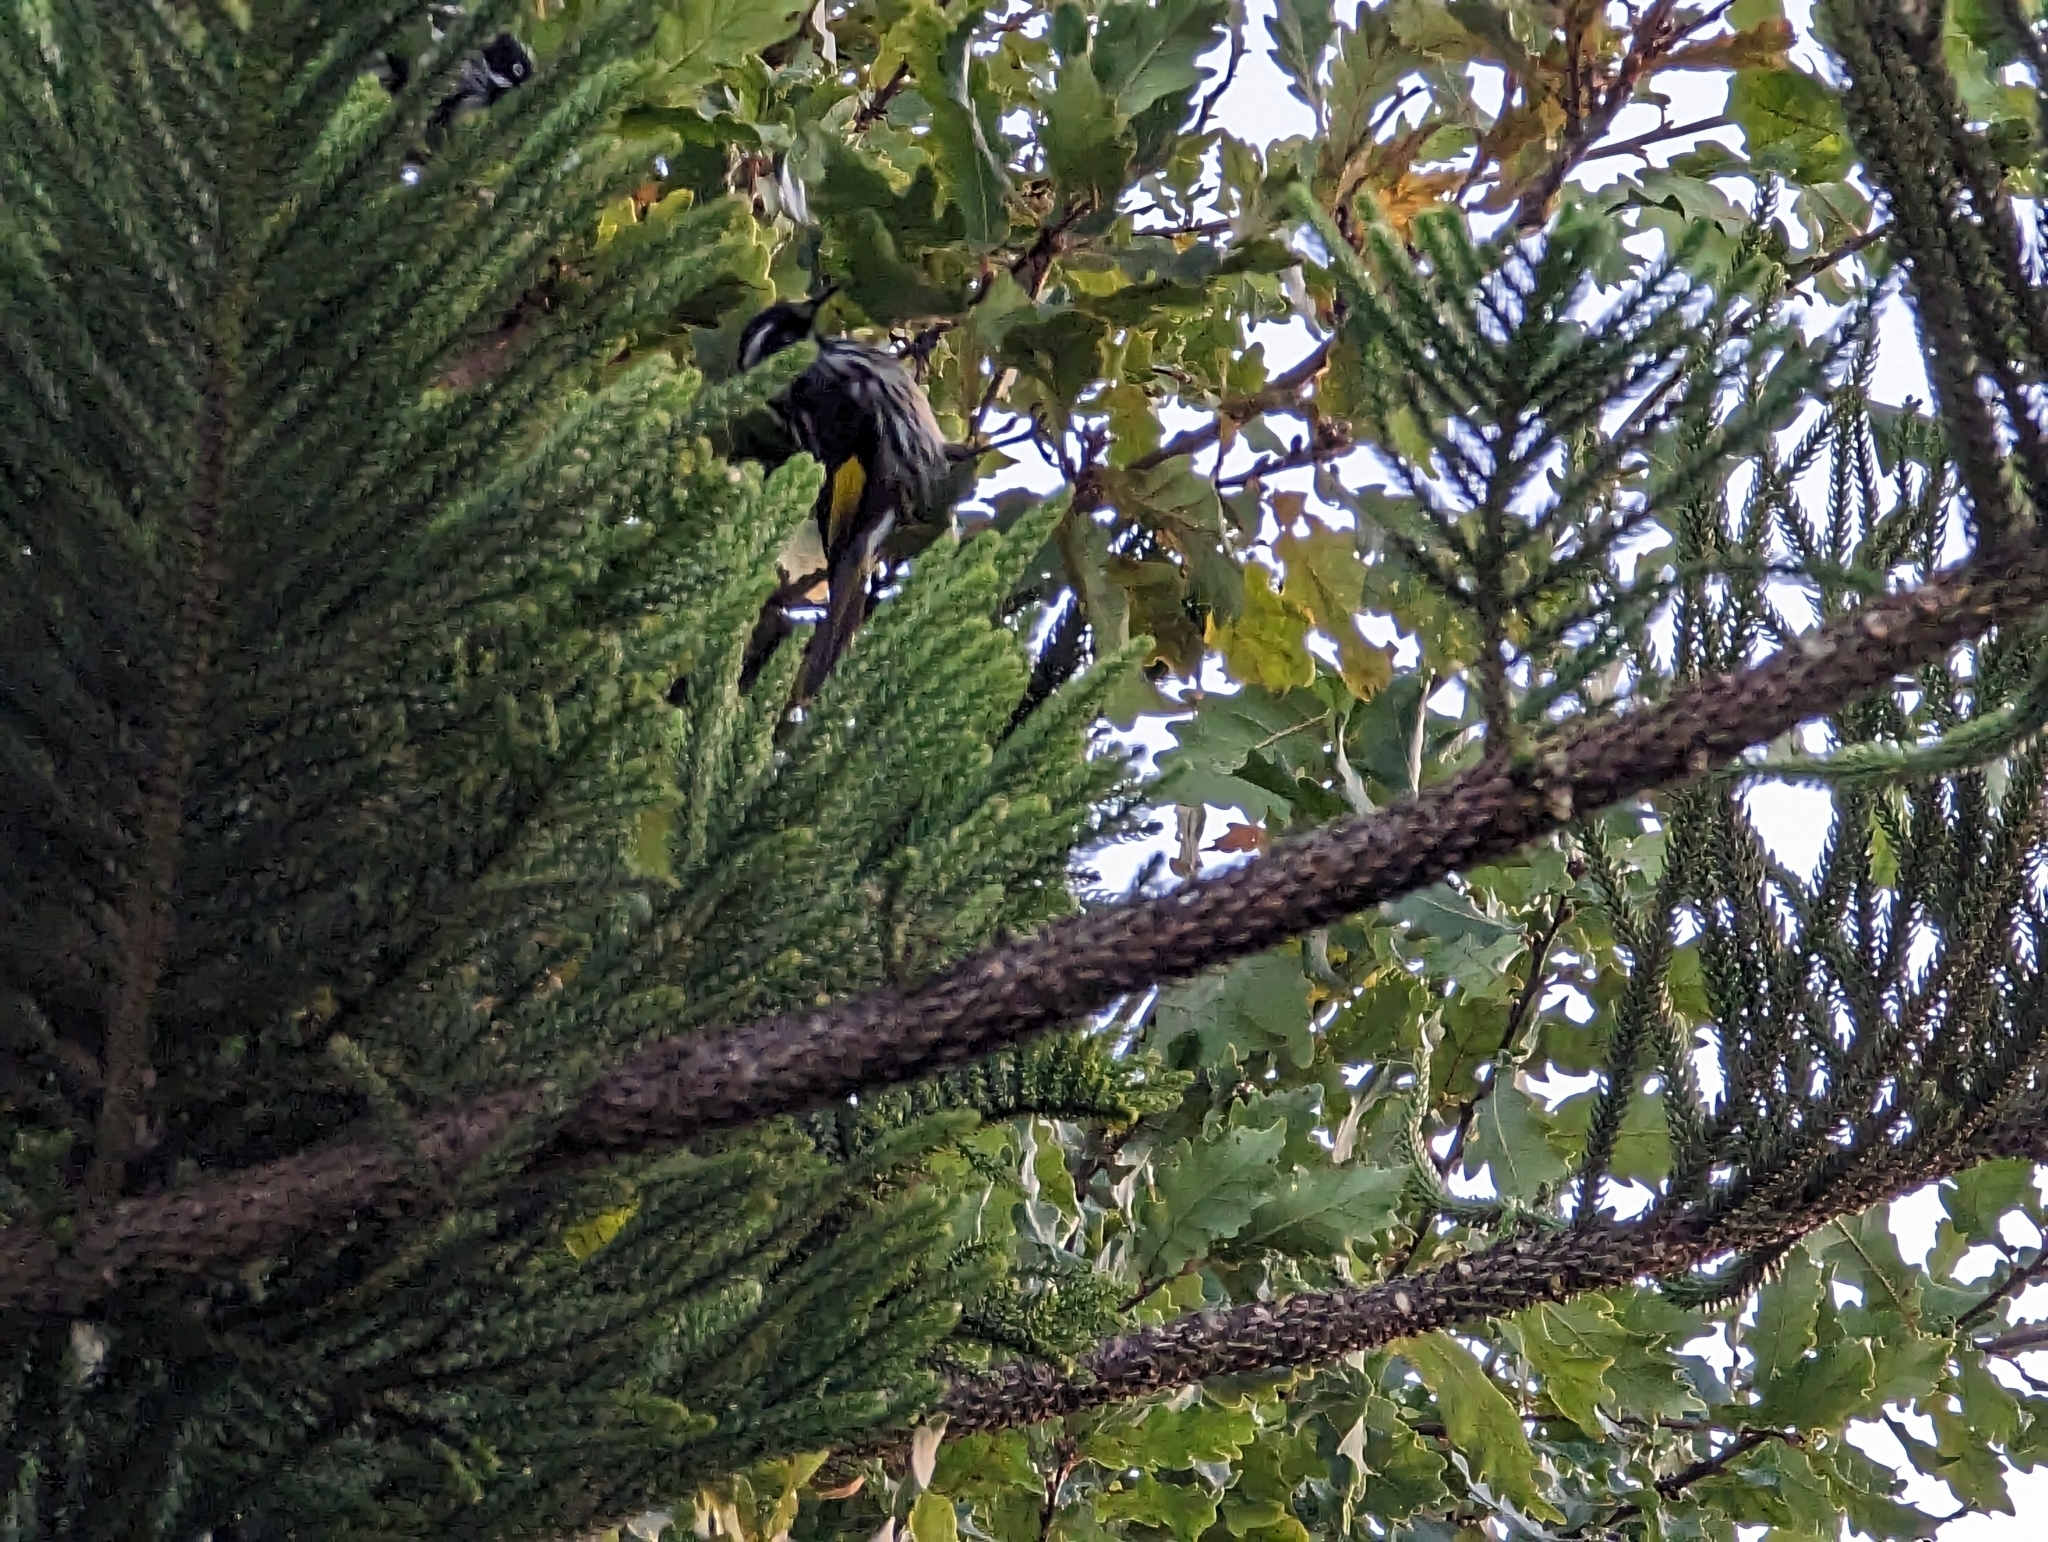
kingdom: Animalia
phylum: Chordata
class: Aves
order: Passeriformes
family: Meliphagidae
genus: Phylidonyris
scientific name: Phylidonyris novaehollandiae
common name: New holland honeyeater
